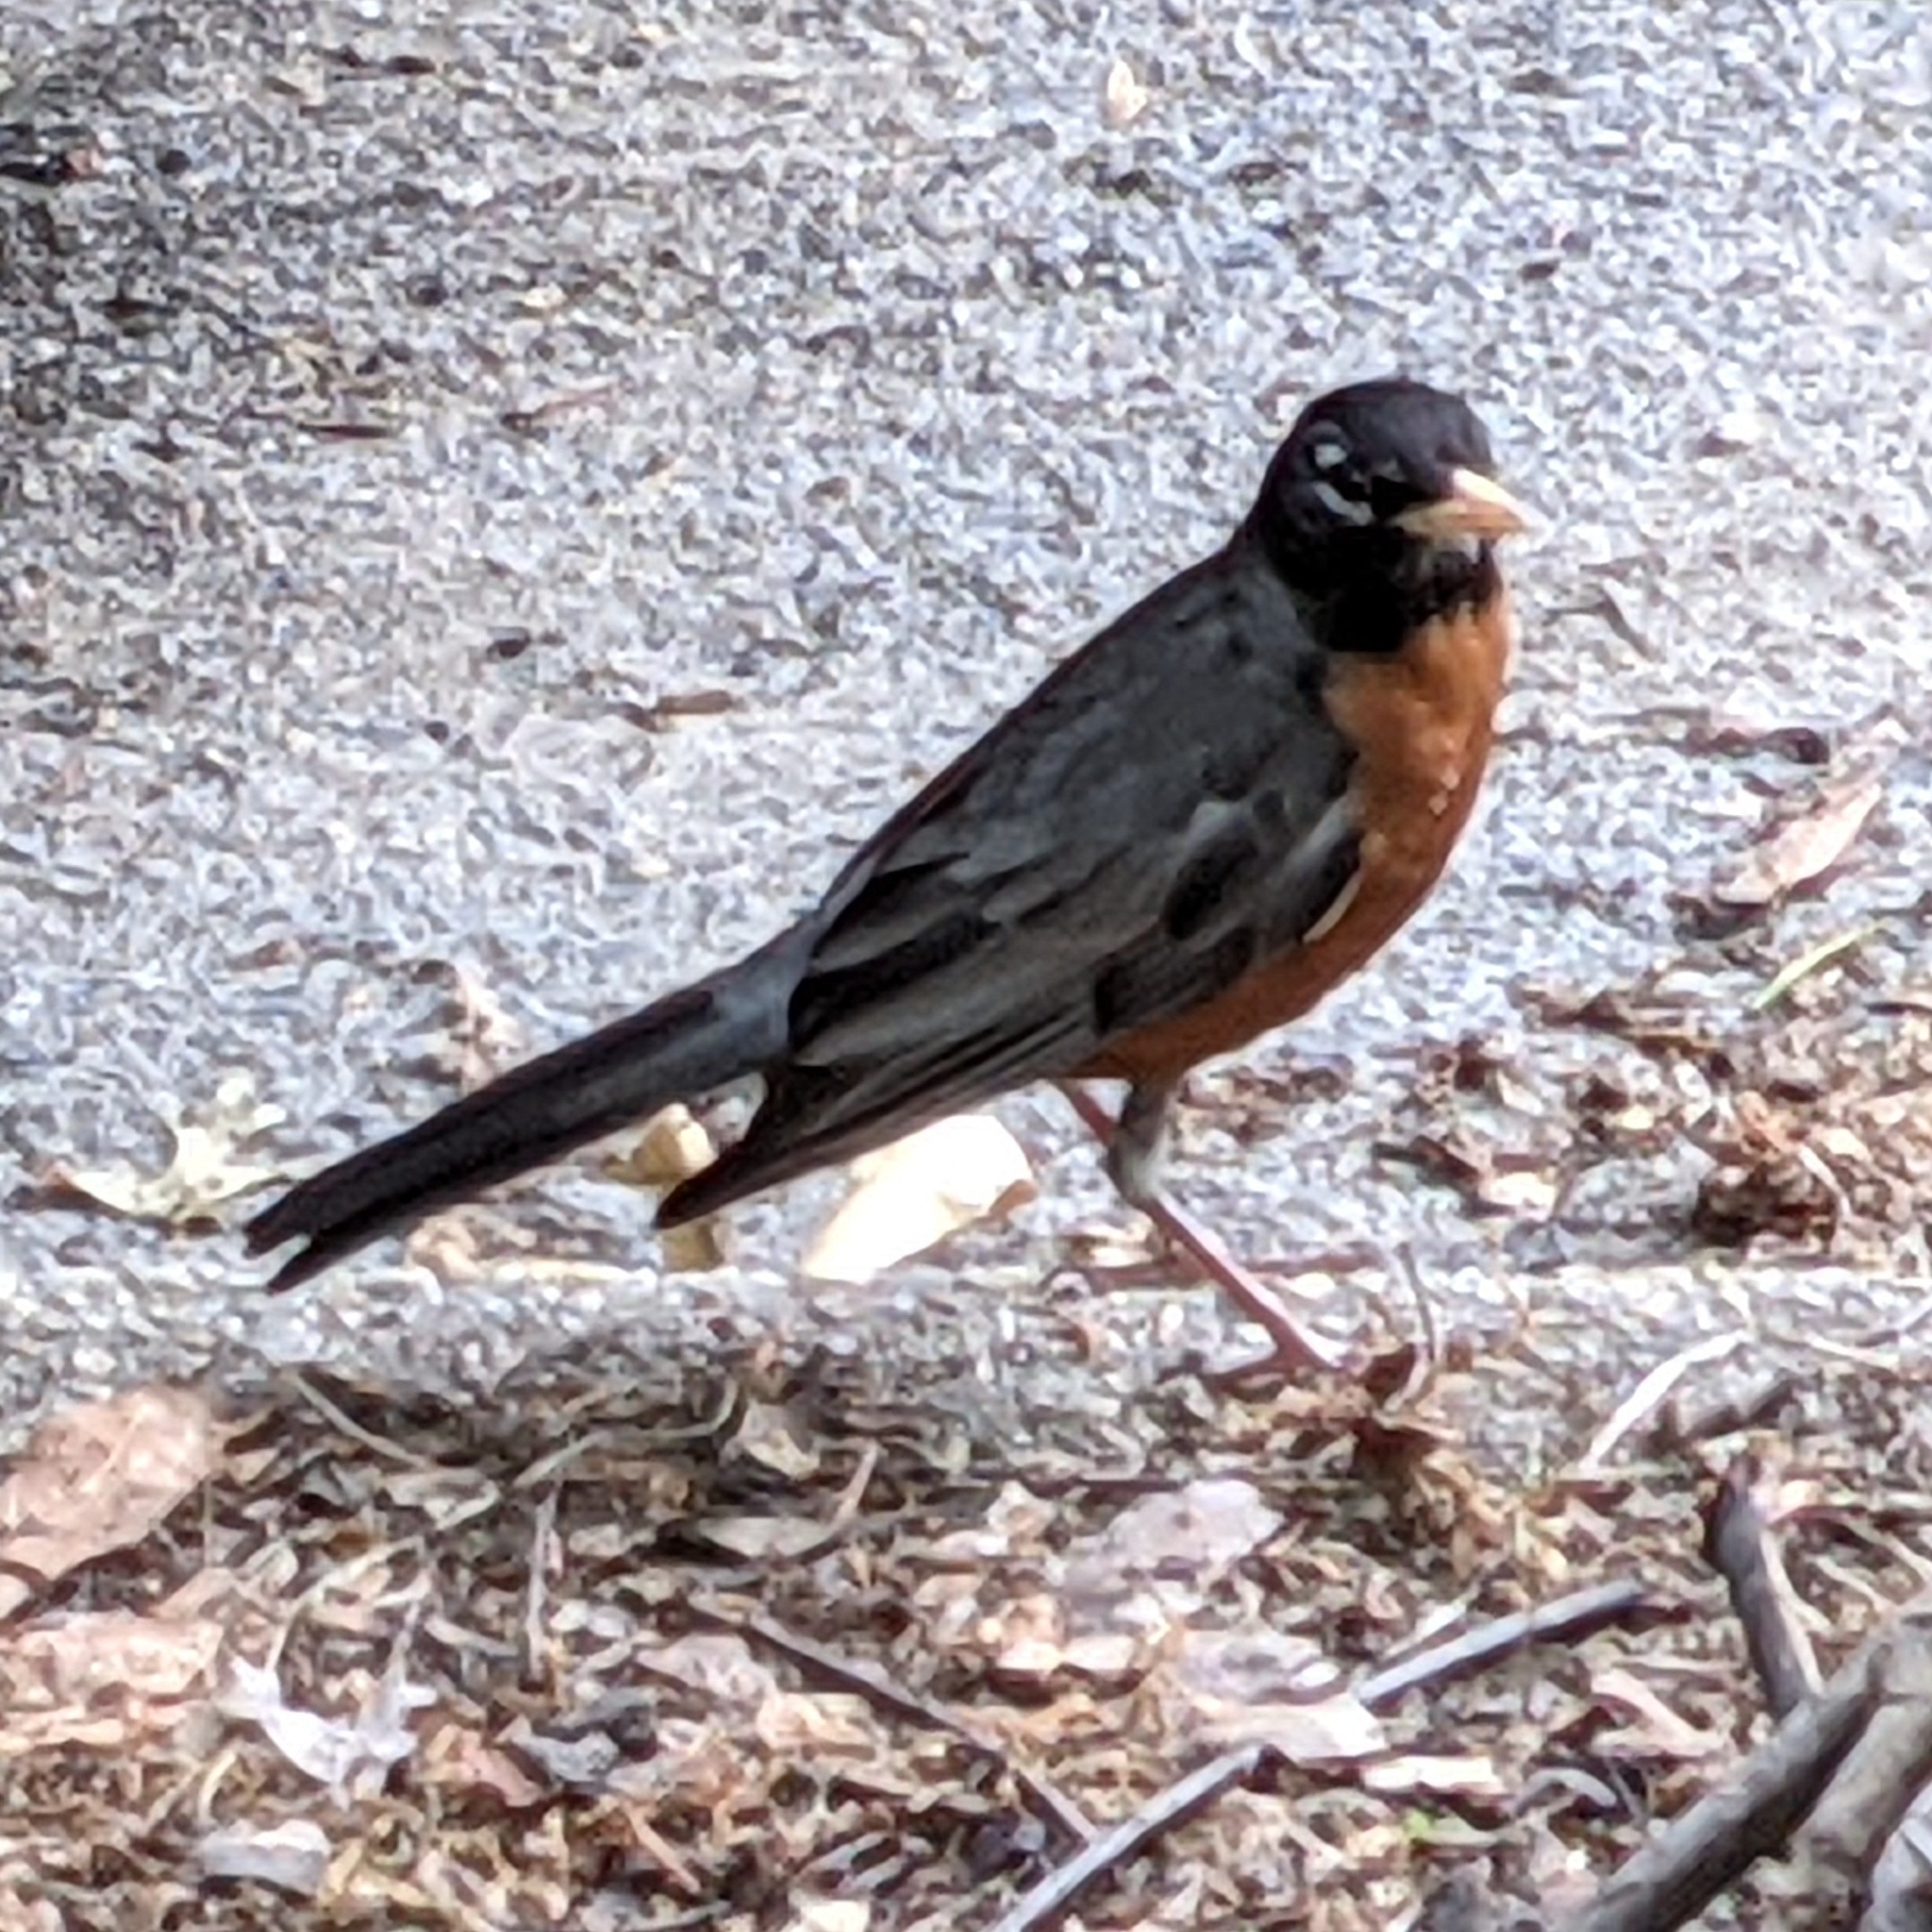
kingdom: Animalia
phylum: Chordata
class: Aves
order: Passeriformes
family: Turdidae
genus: Turdus
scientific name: Turdus migratorius
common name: American robin
